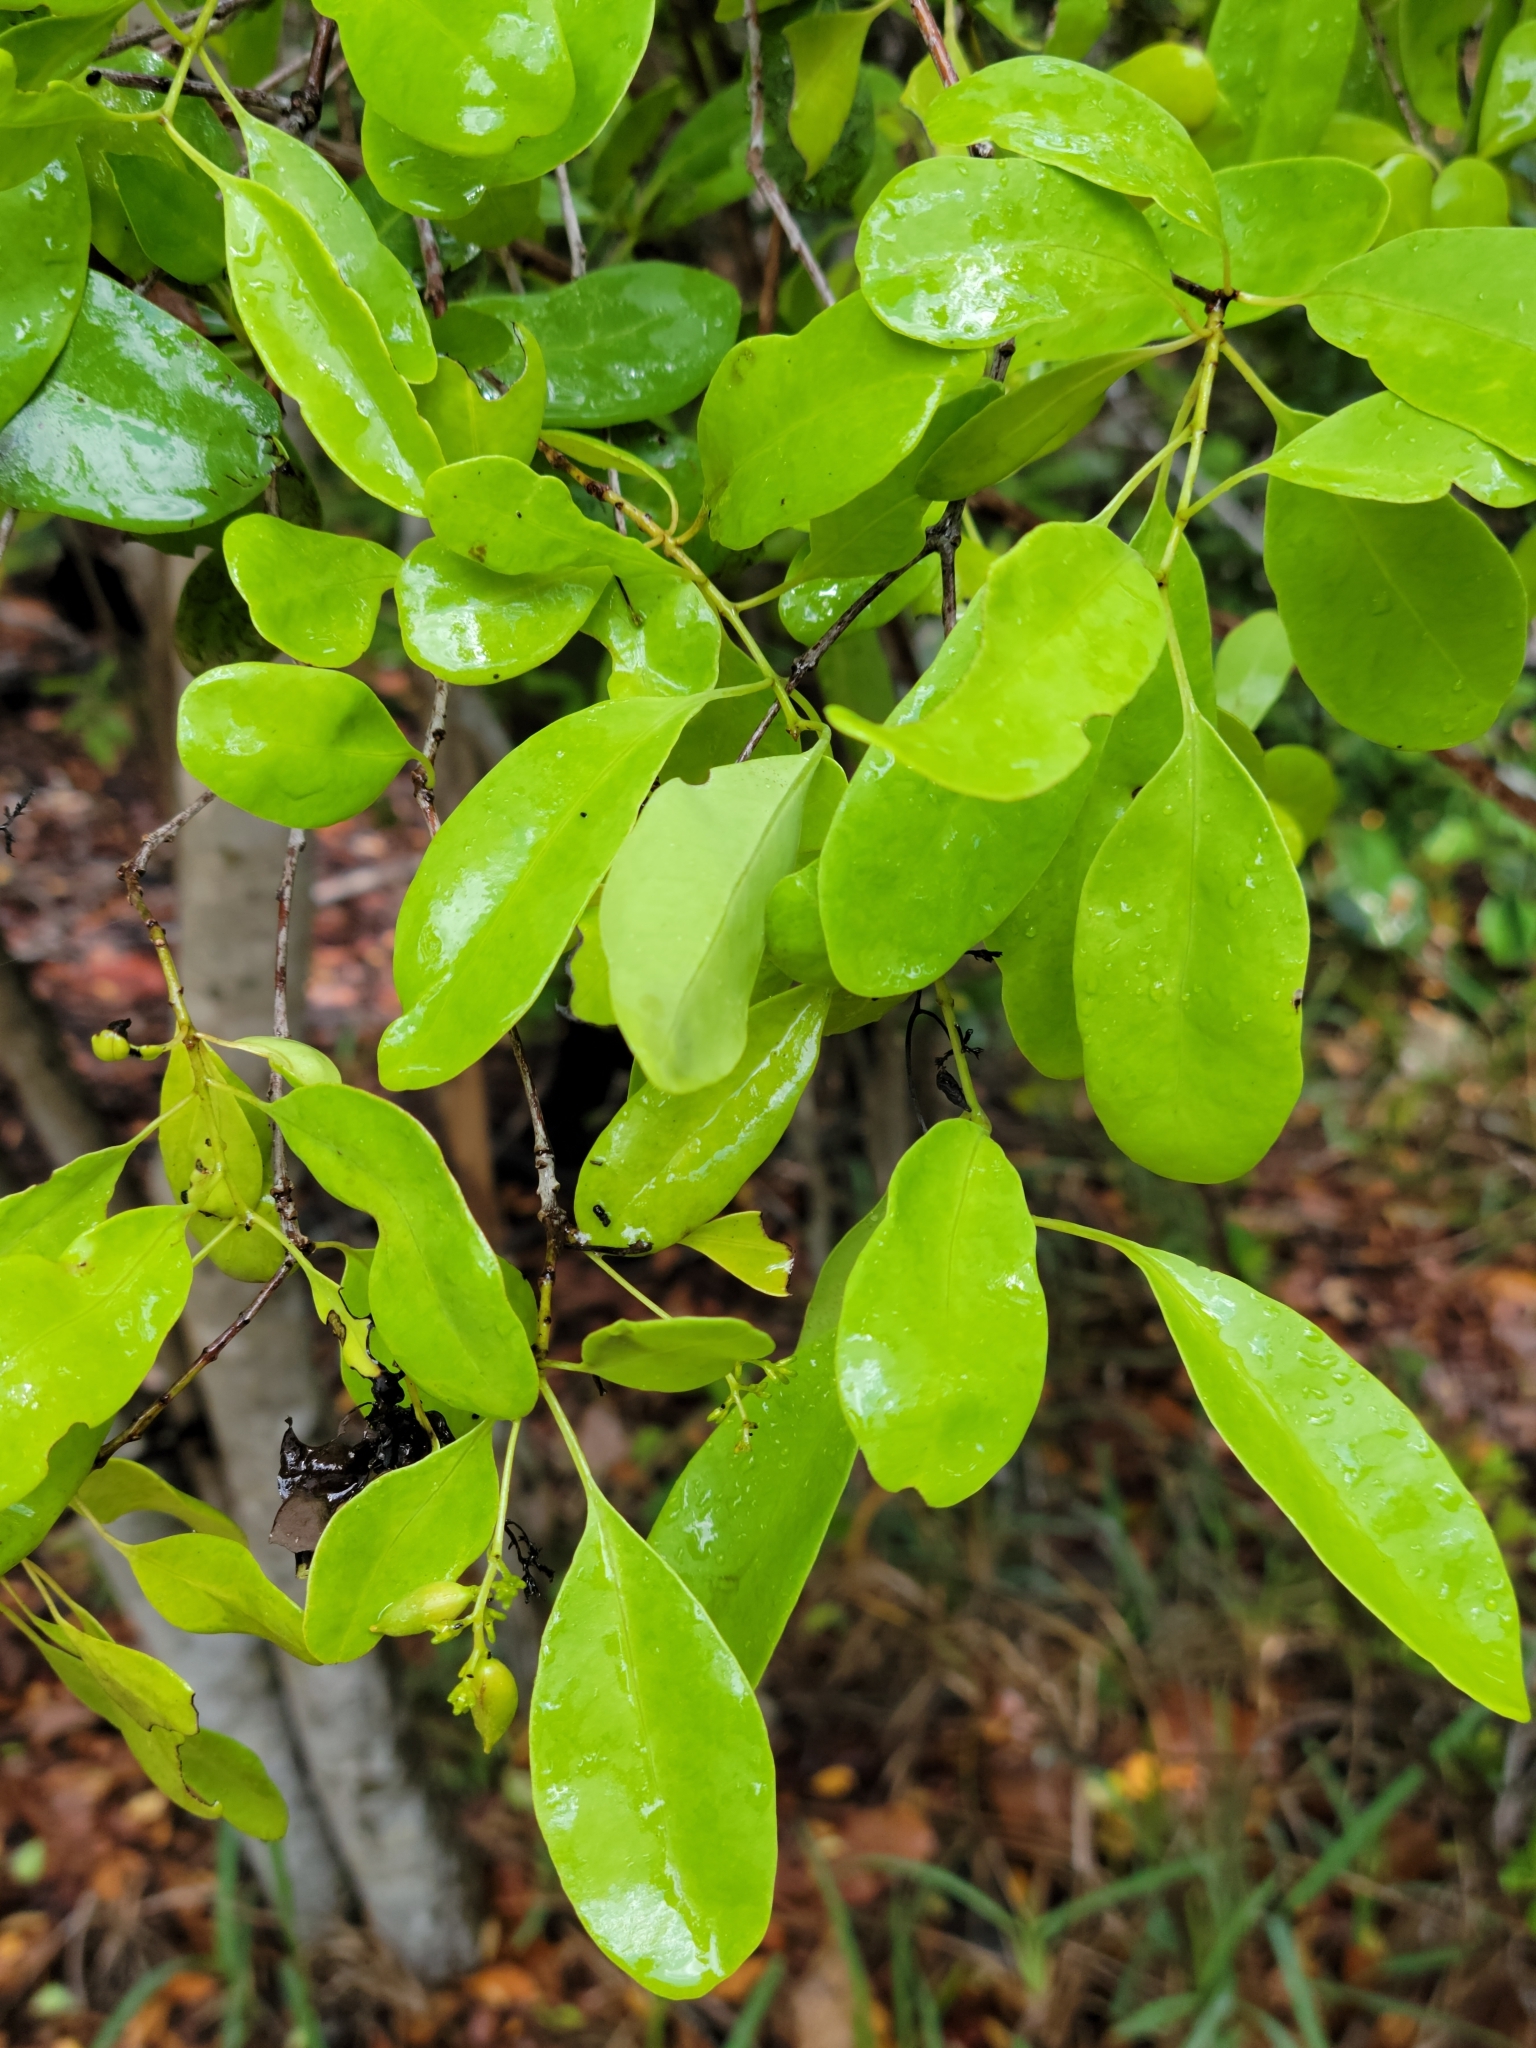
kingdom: Plantae
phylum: Tracheophyta
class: Magnoliopsida
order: Caryophyllales
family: Nyctaginaceae
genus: Guapira
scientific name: Guapira discolor
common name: Beeftree
